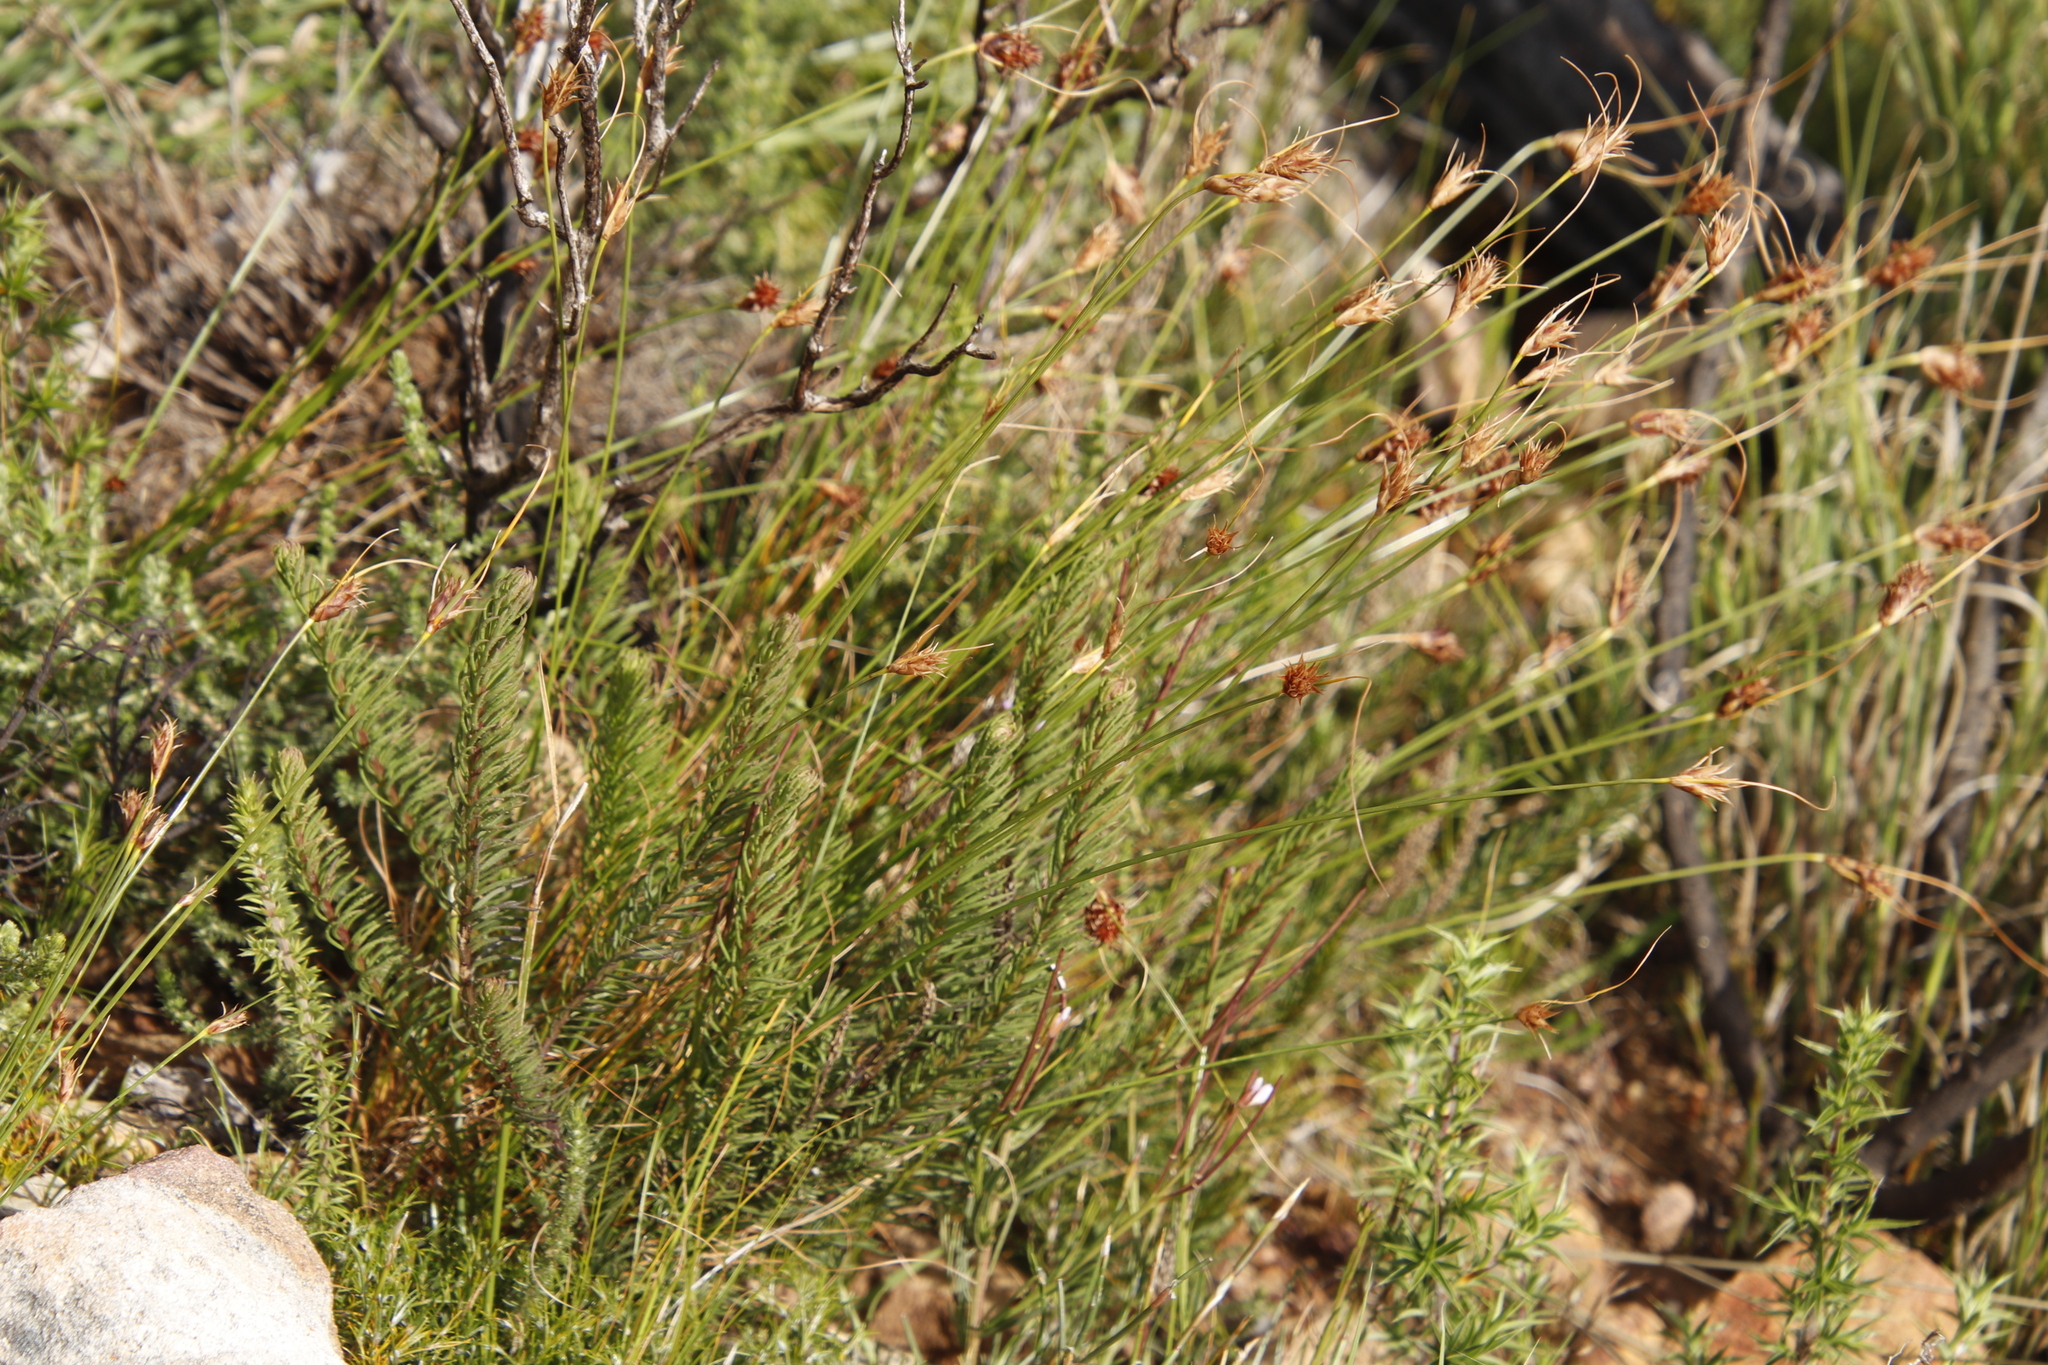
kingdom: Plantae
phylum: Tracheophyta
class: Liliopsida
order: Poales
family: Cyperaceae
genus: Ficinia
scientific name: Ficinia nigrescens
